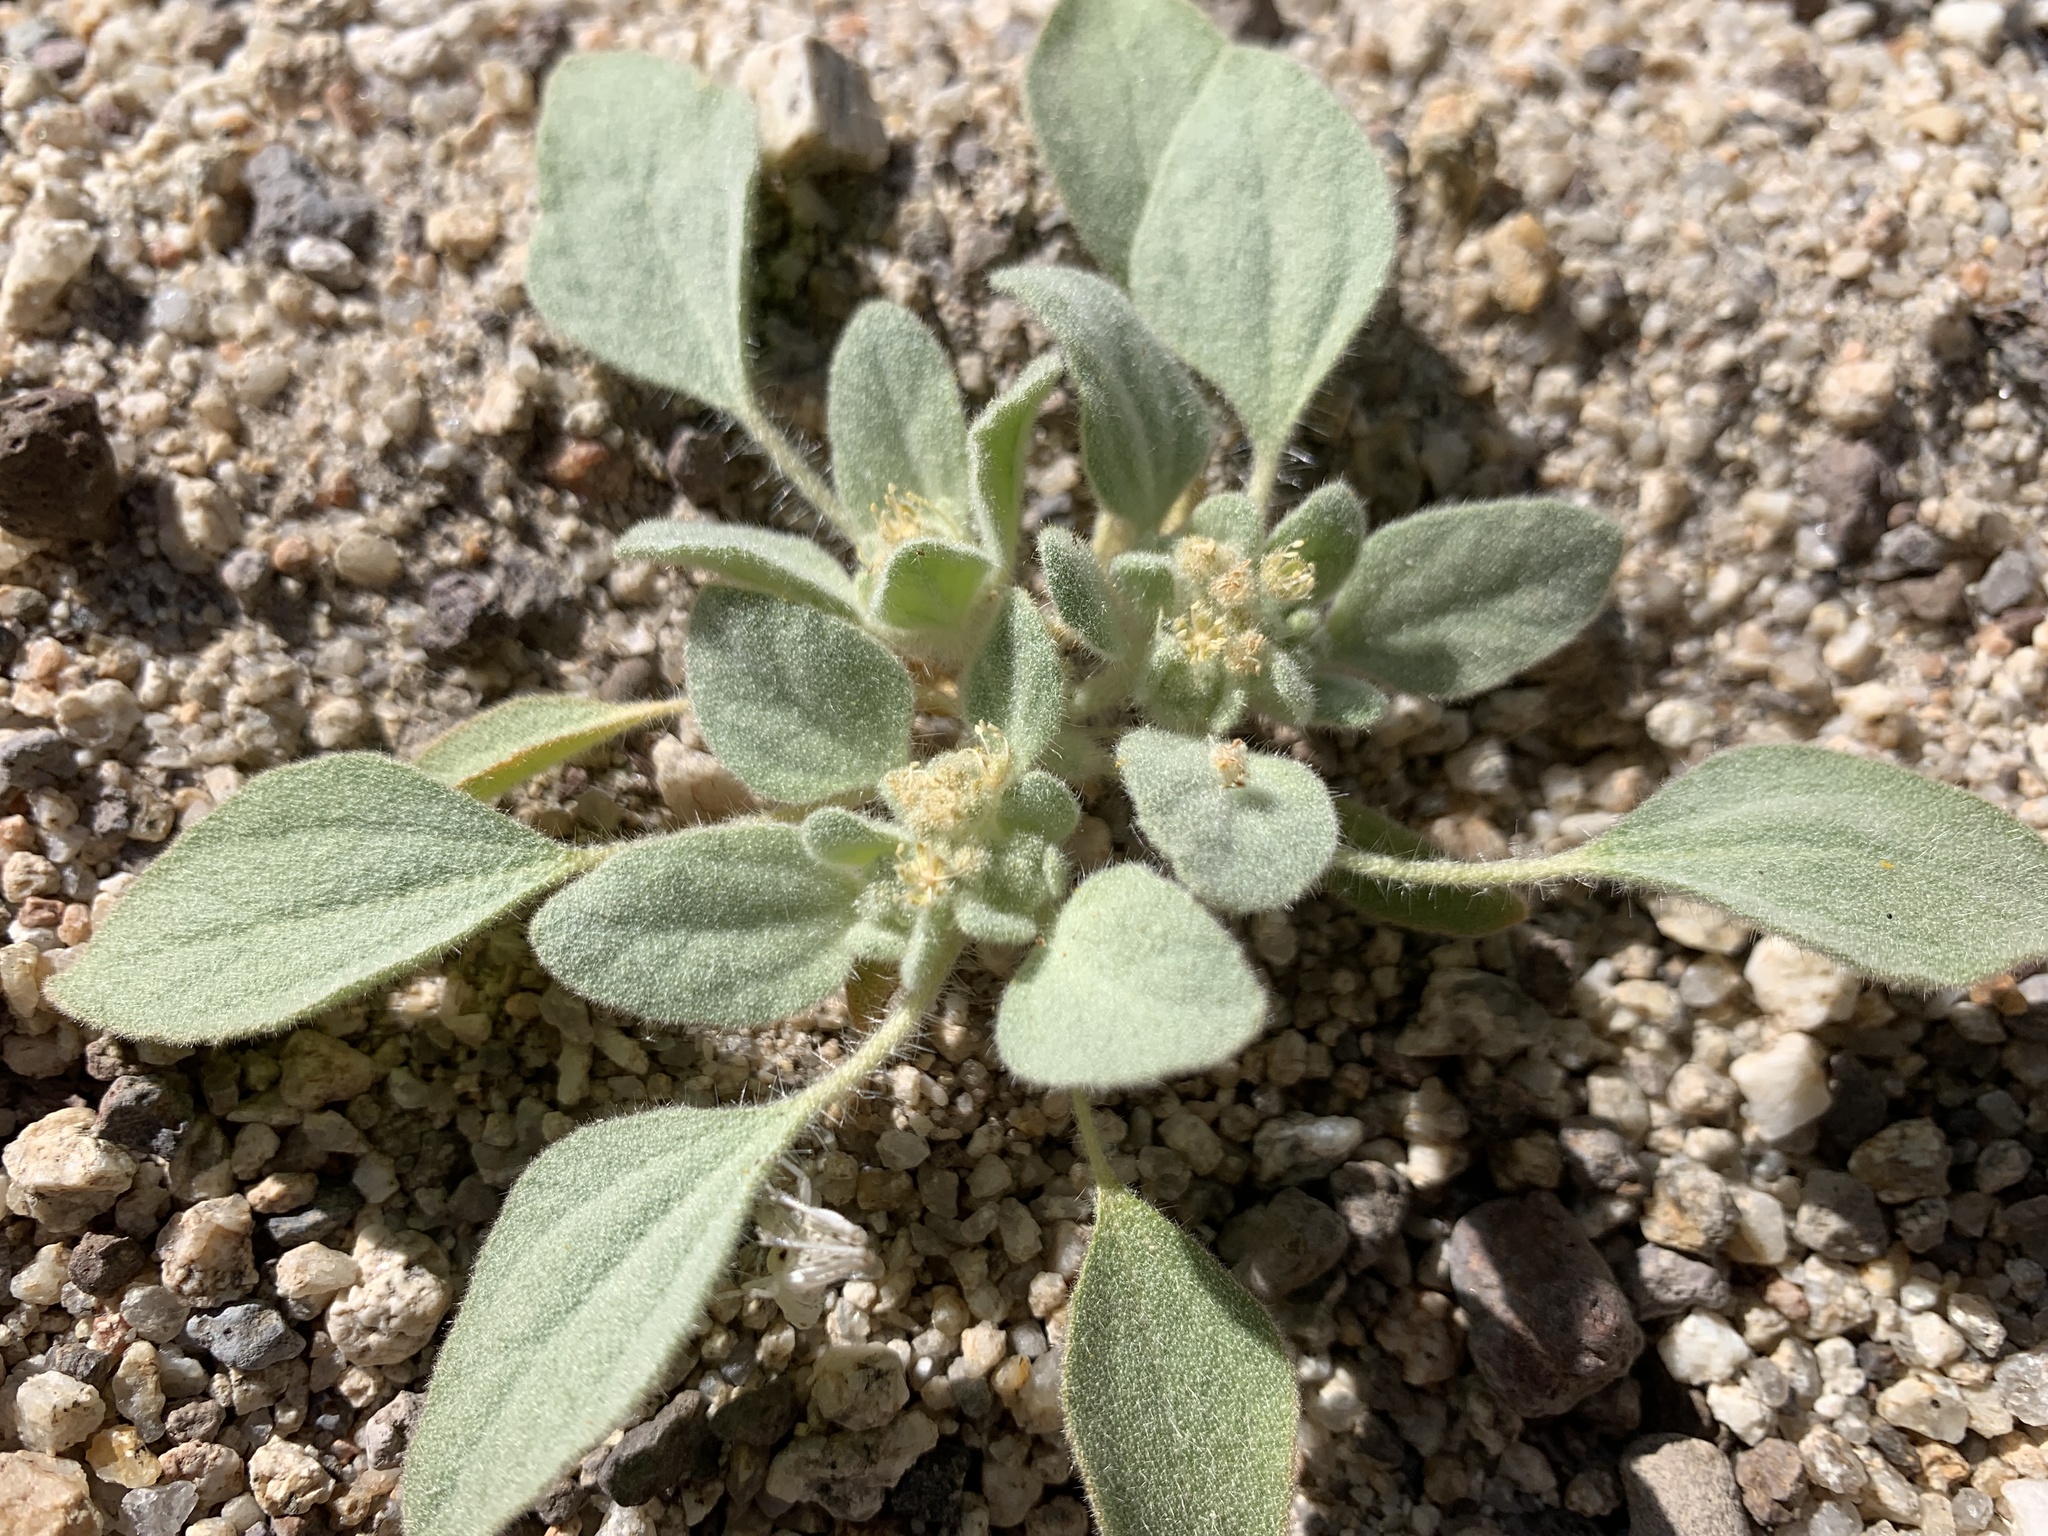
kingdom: Plantae
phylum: Tracheophyta
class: Magnoliopsida
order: Malpighiales
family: Euphorbiaceae
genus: Croton
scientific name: Croton setiger
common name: Dove weed
